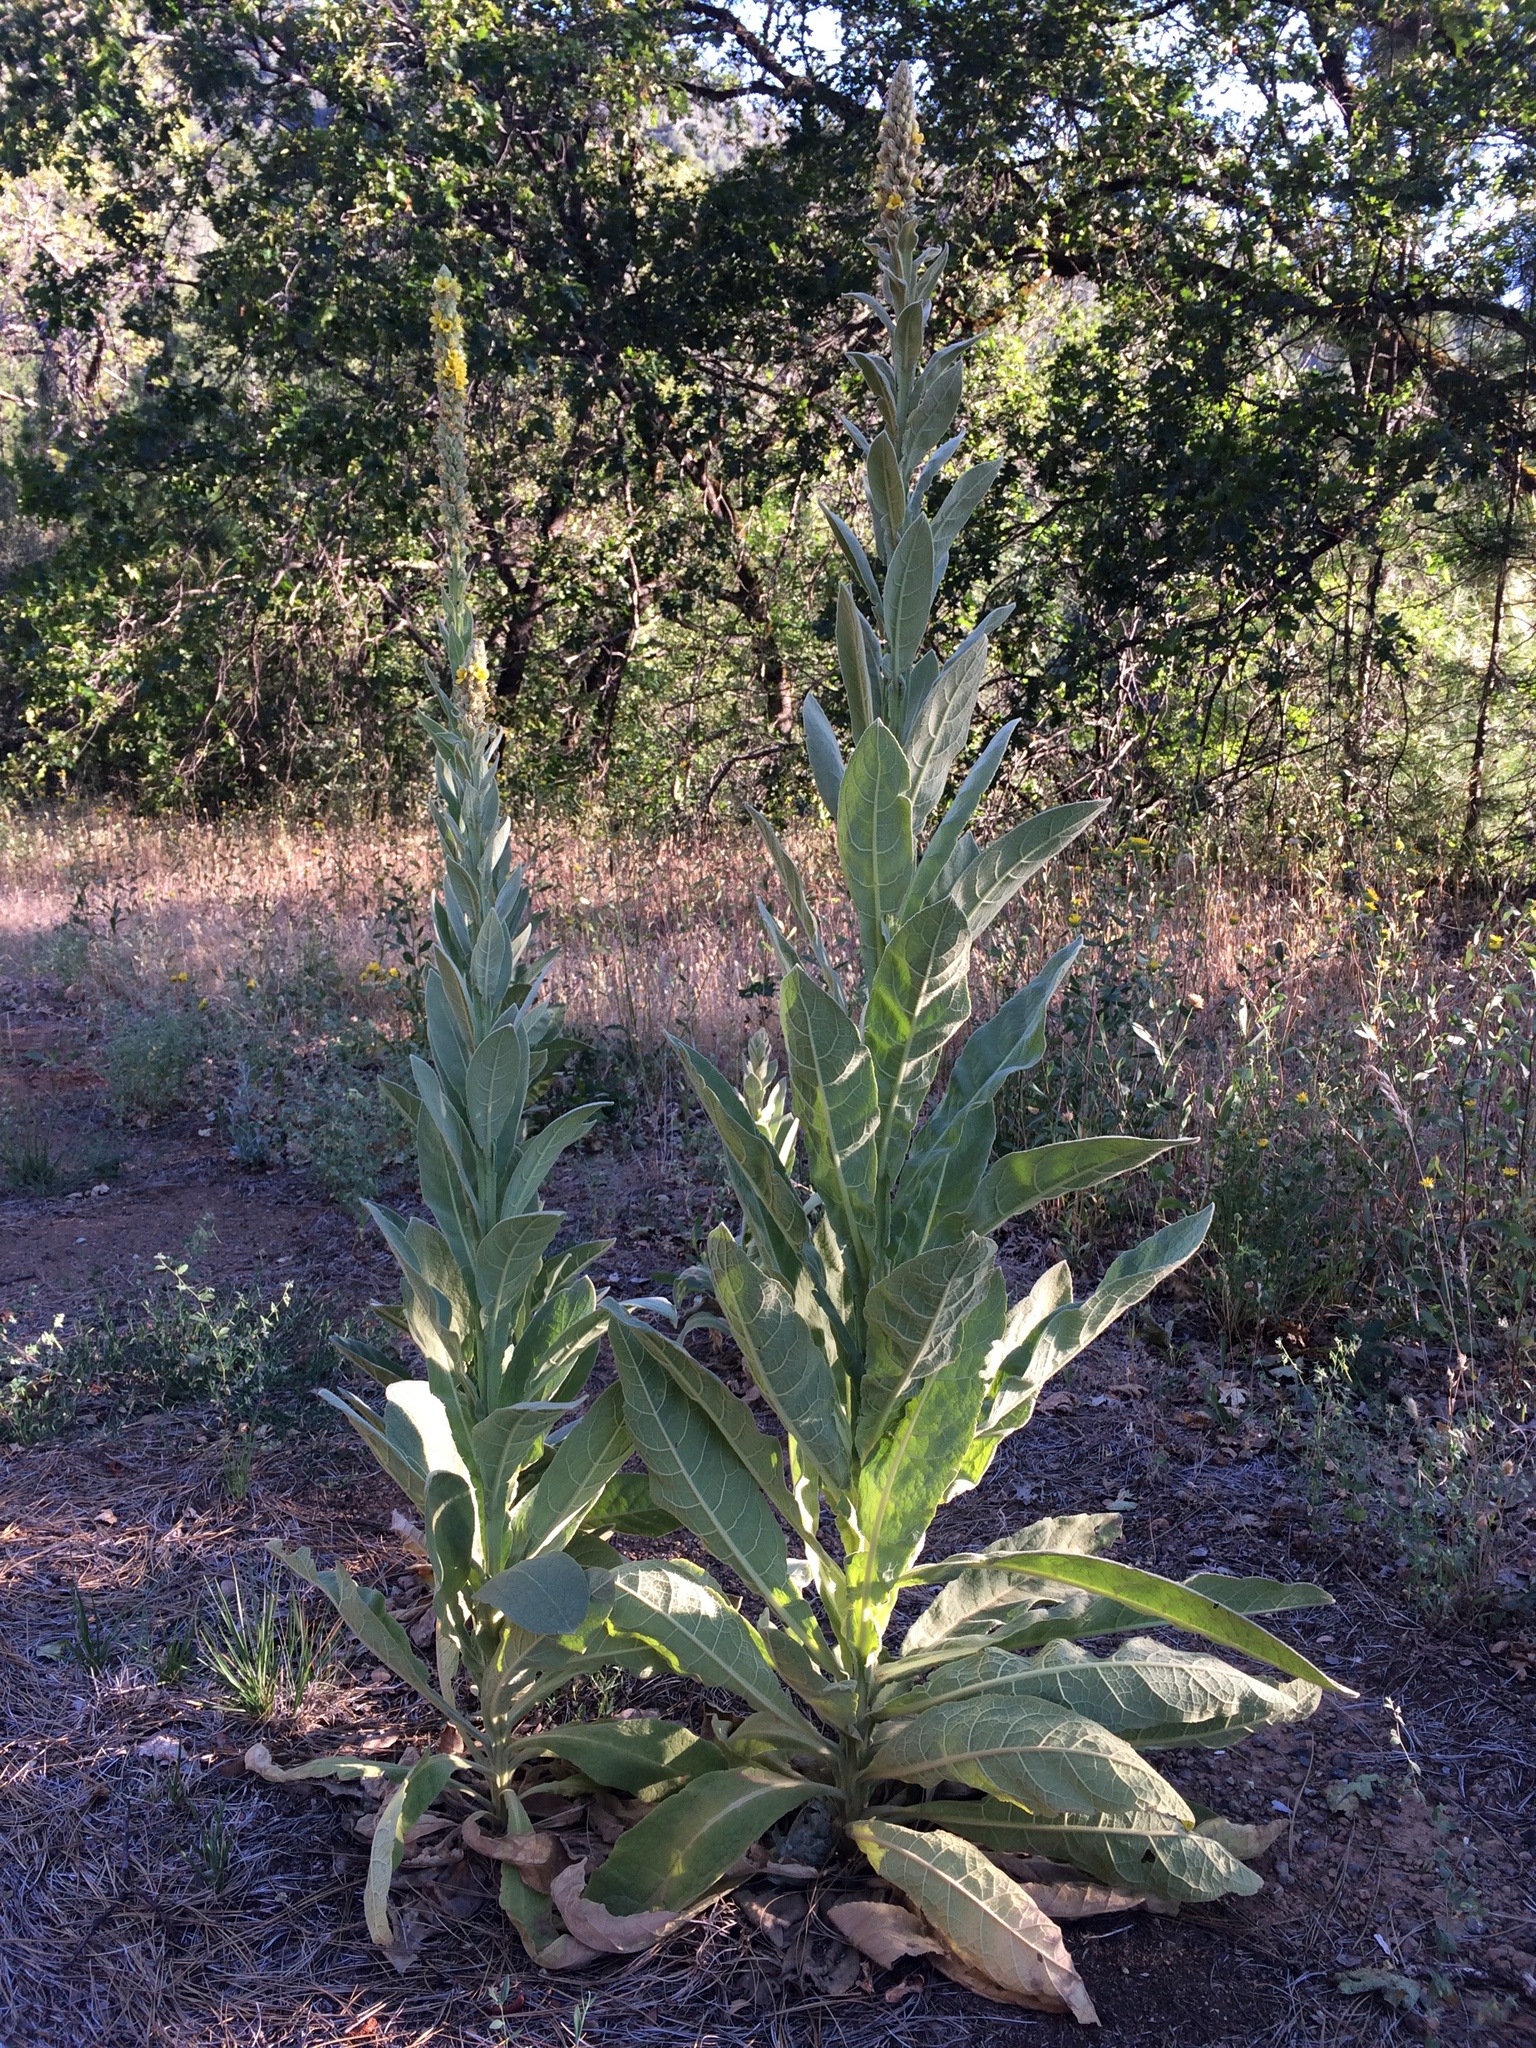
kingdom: Plantae
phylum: Tracheophyta
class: Magnoliopsida
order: Lamiales
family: Scrophulariaceae
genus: Verbascum
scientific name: Verbascum thapsus
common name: Common mullein
